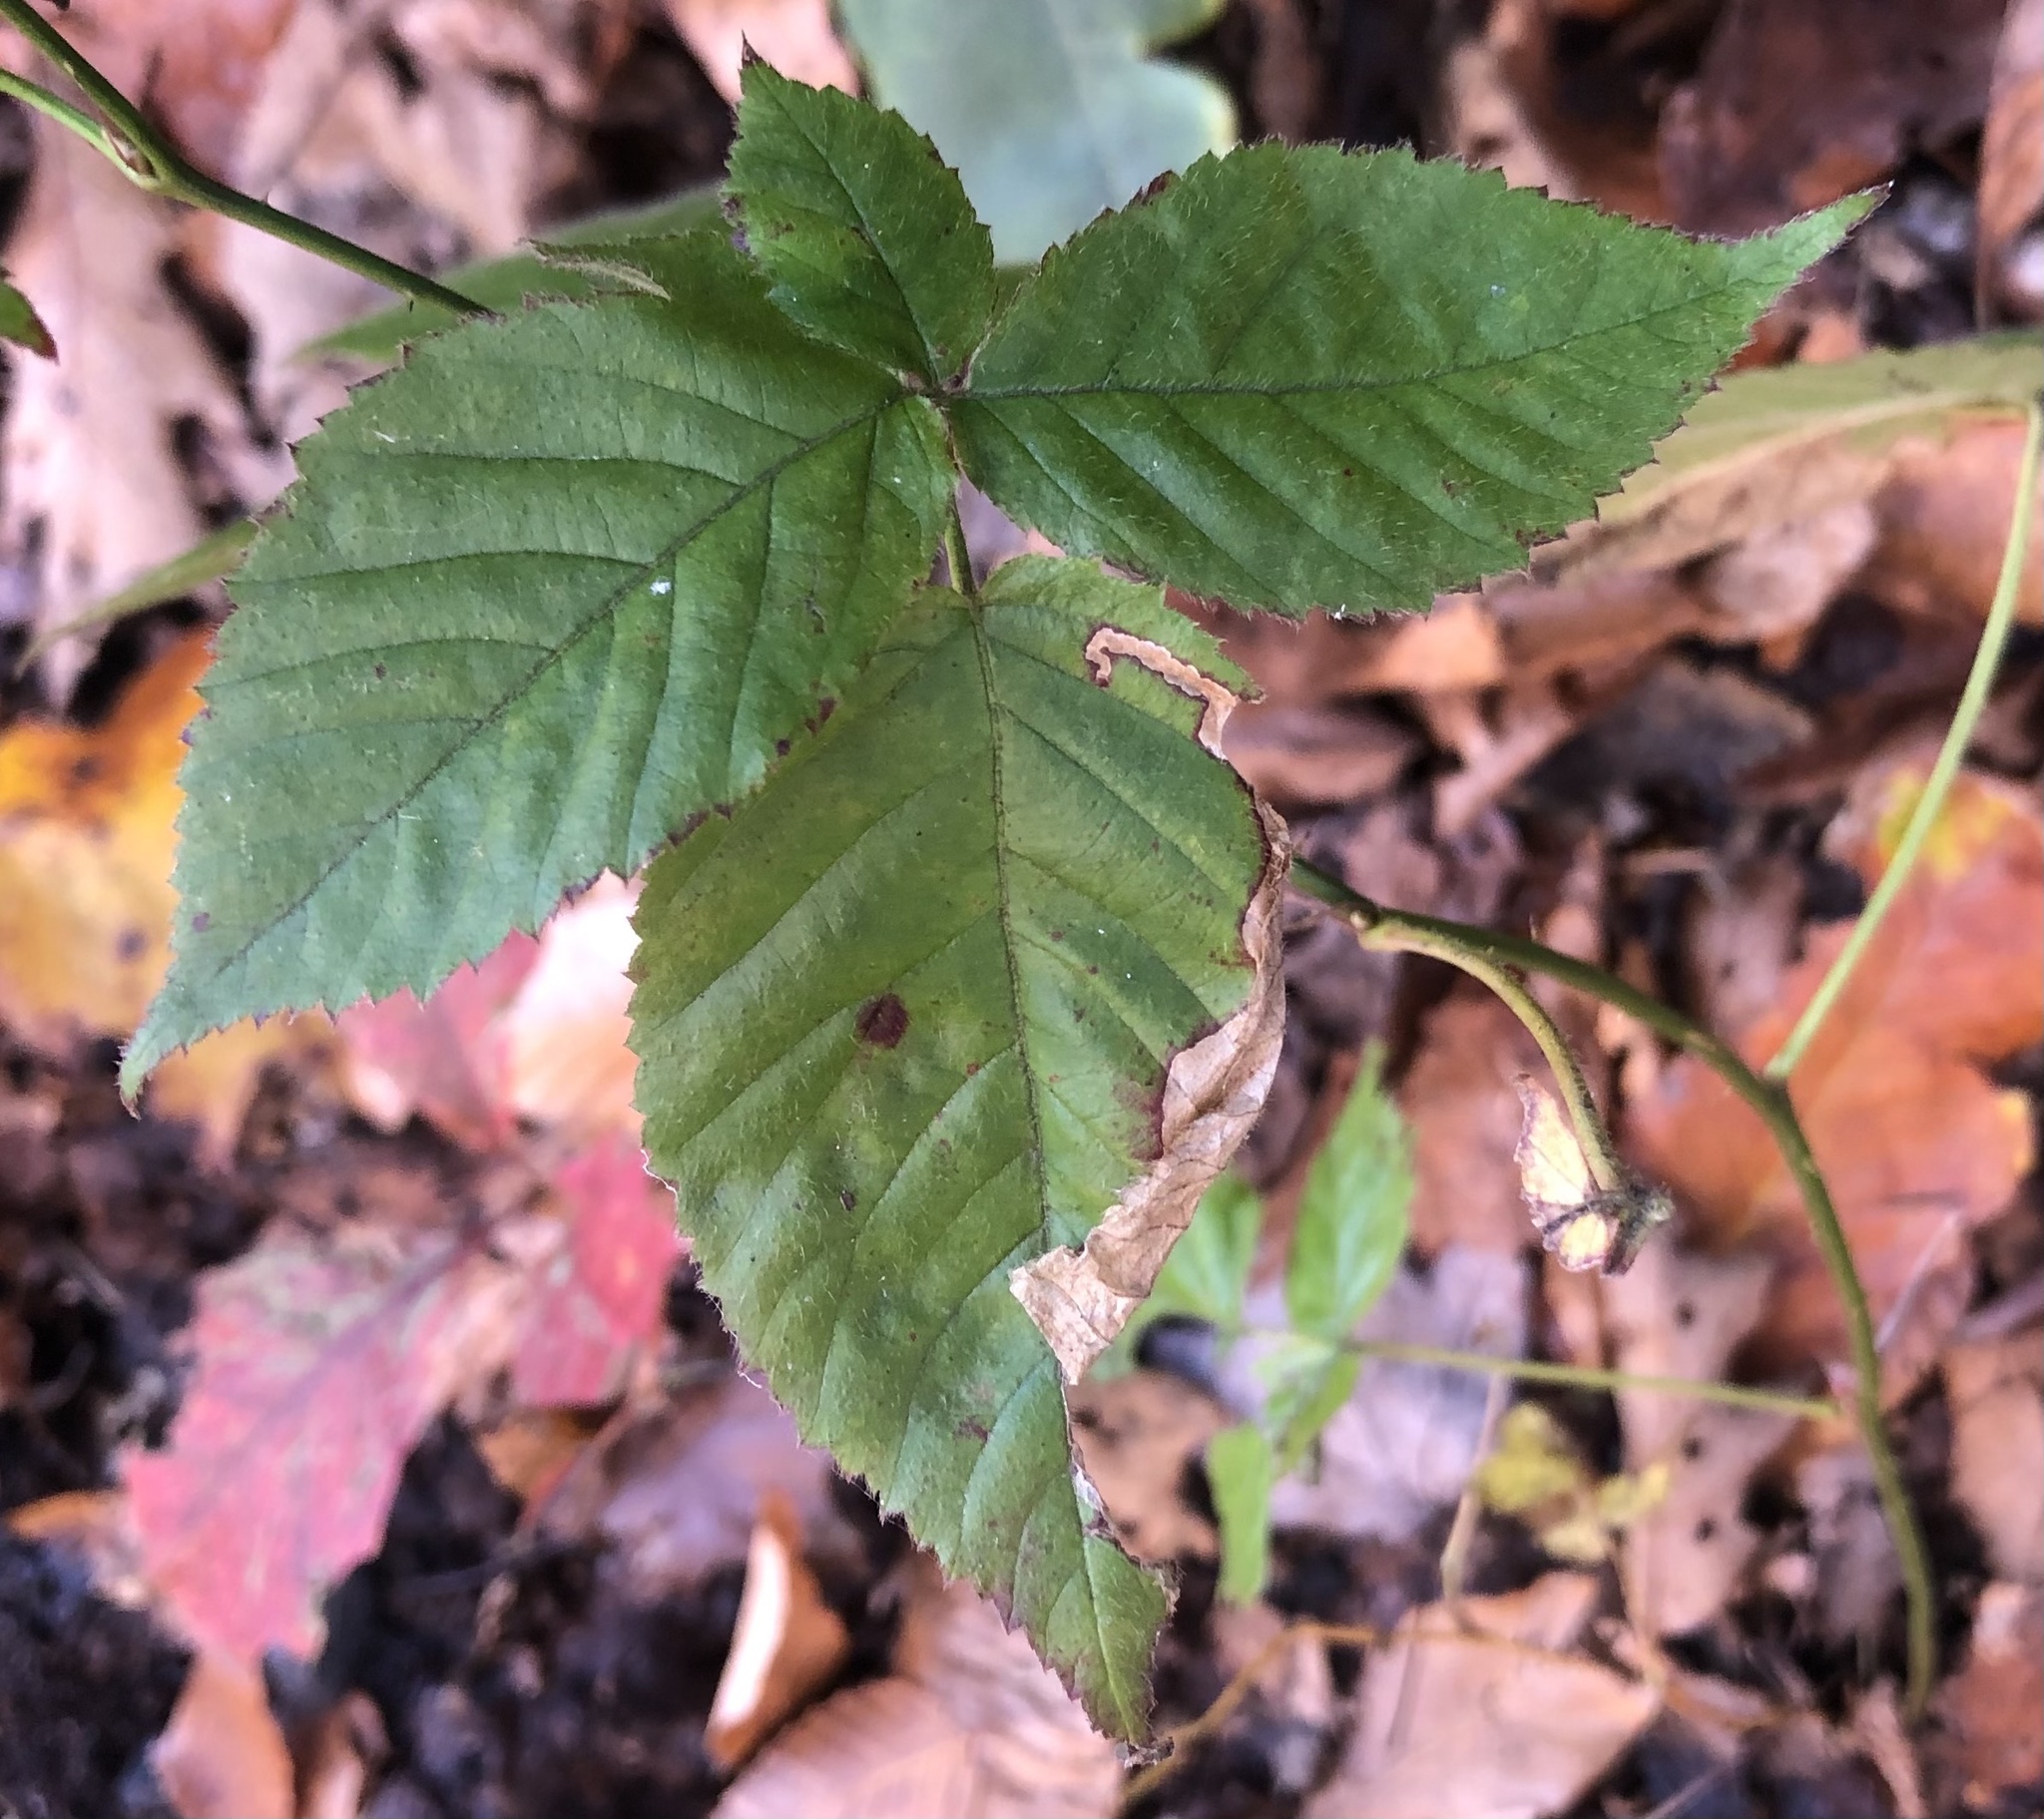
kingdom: Animalia
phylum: Arthropoda
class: Insecta
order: Hymenoptera
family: Tenthredinidae
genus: Metallus
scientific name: Metallus rohweri
